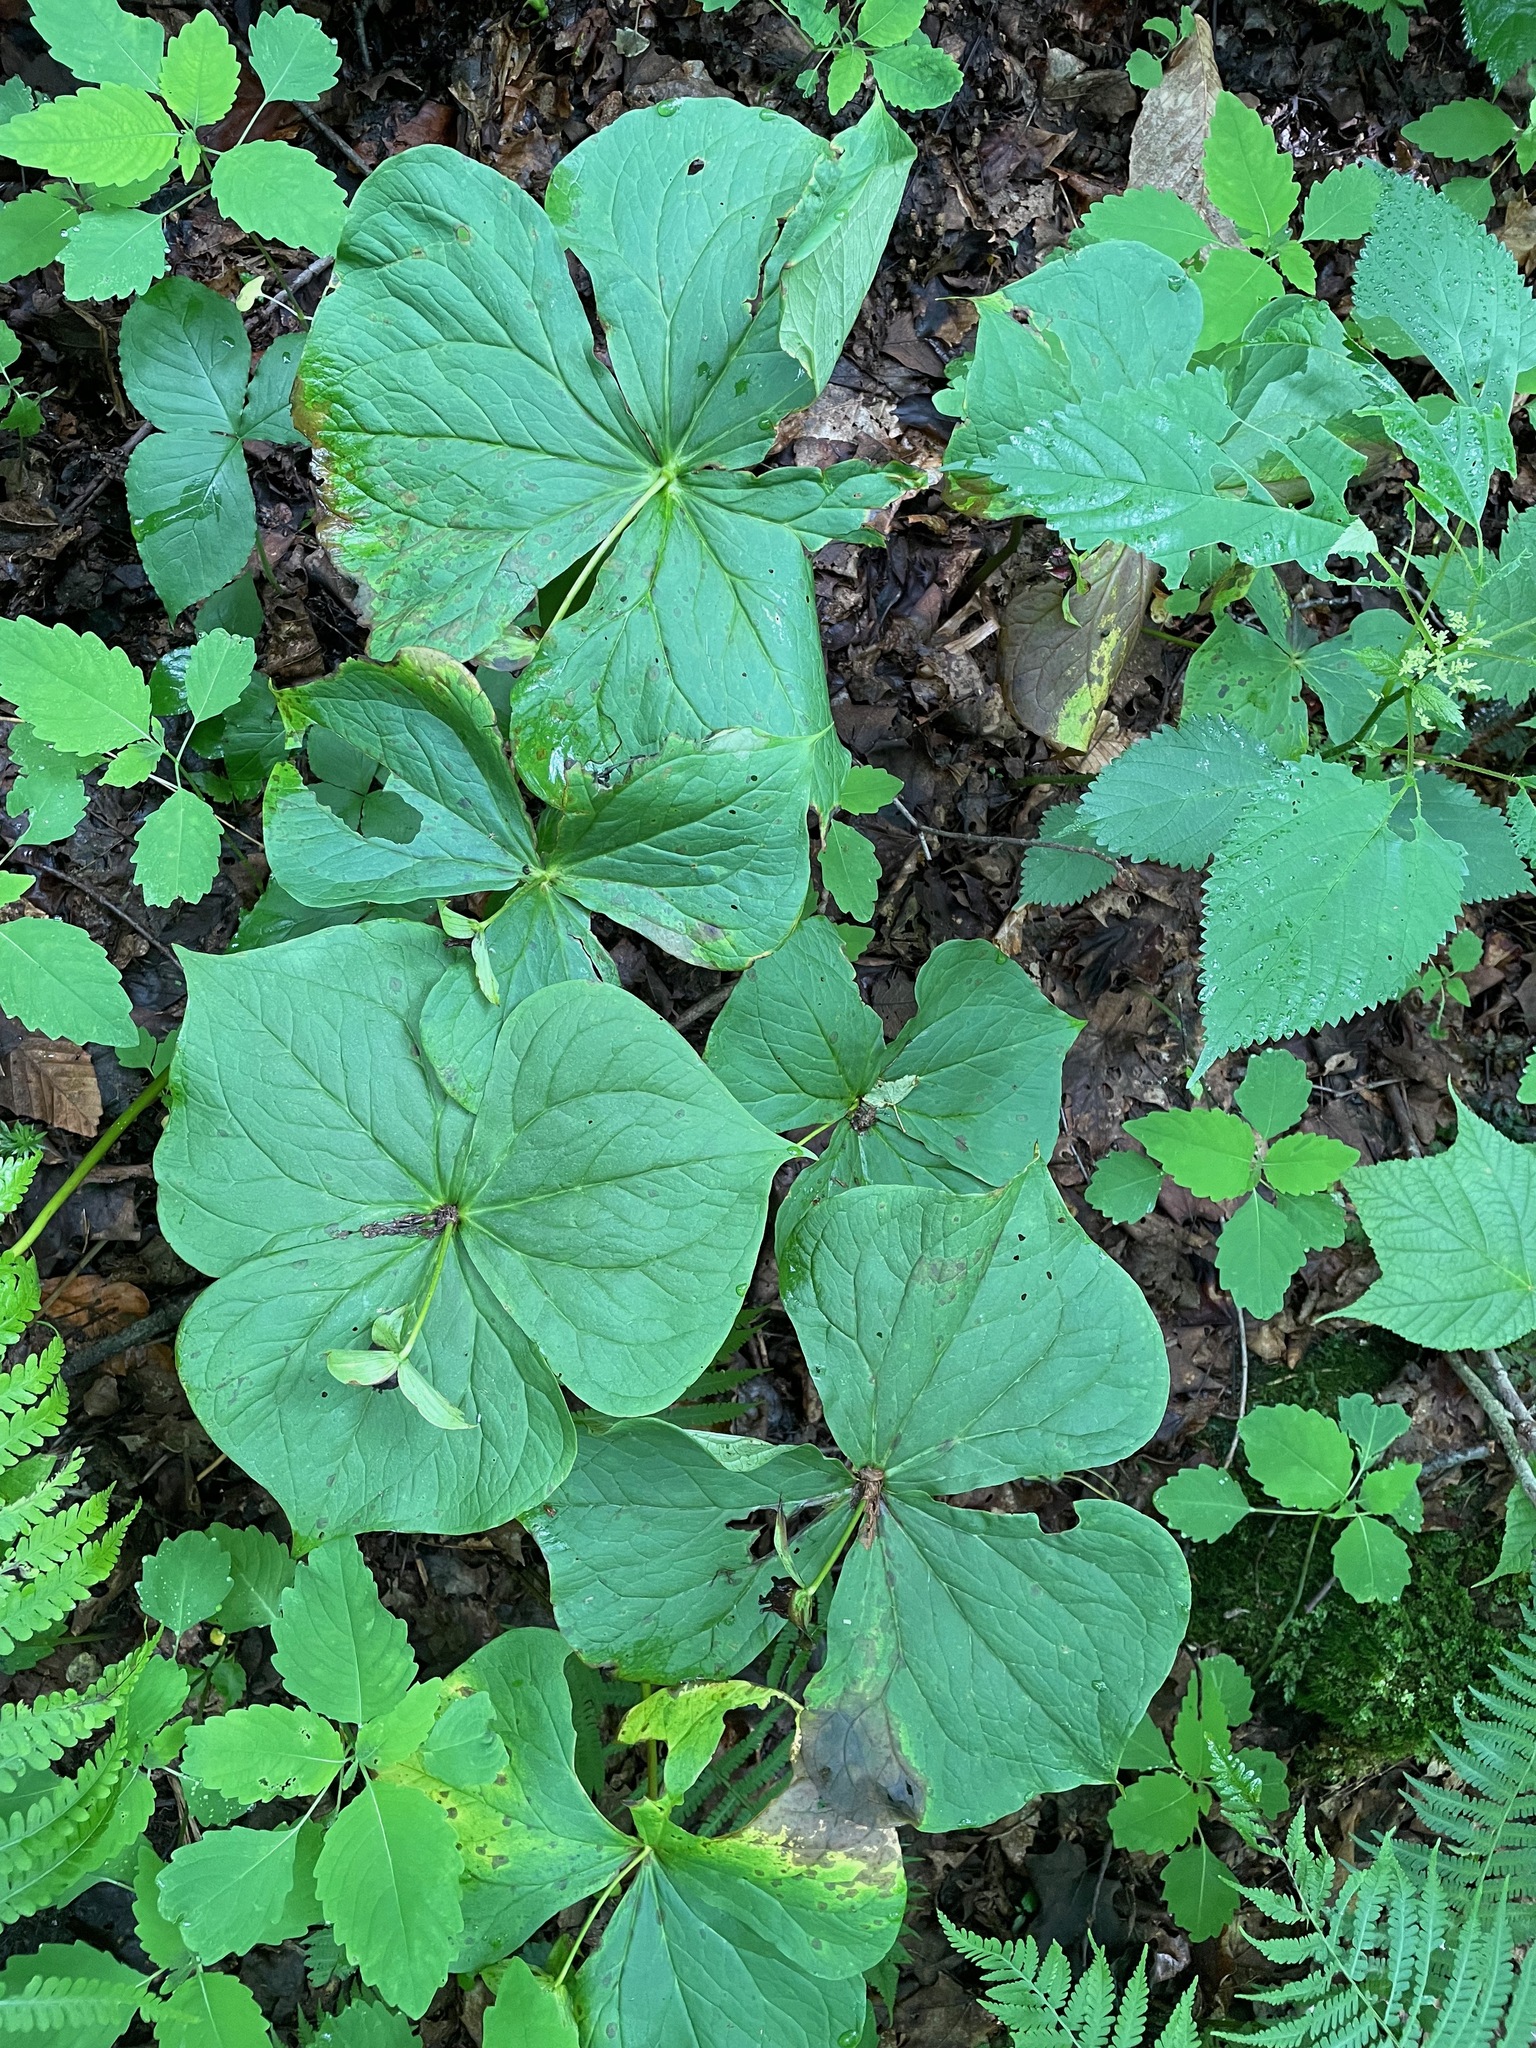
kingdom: Plantae
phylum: Tracheophyta
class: Liliopsida
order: Liliales
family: Melanthiaceae
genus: Trillium
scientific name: Trillium erectum
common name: Purple trillium
